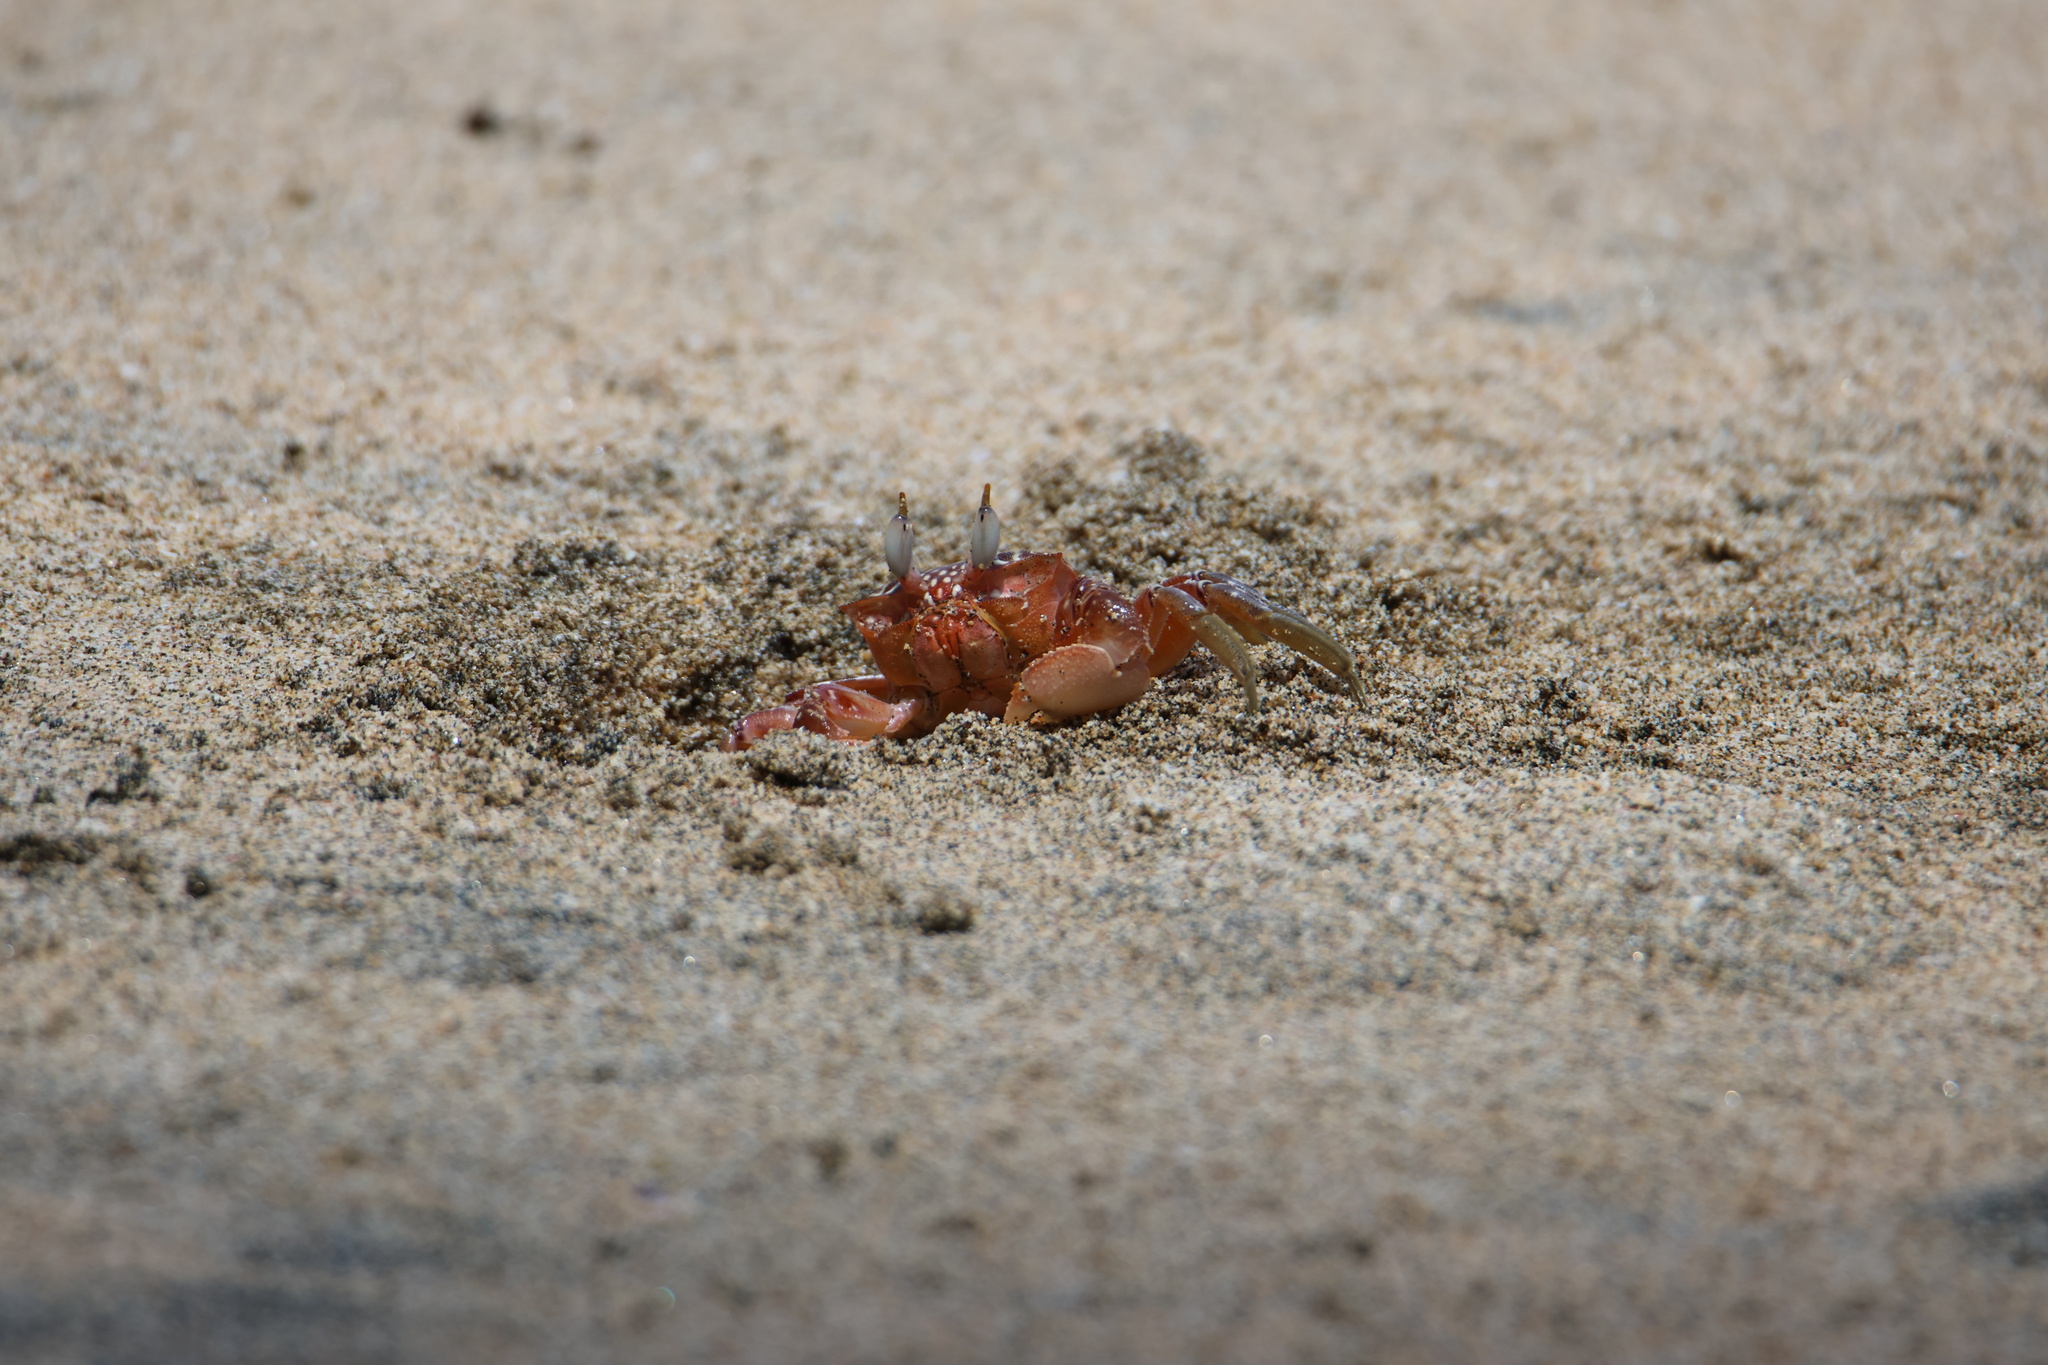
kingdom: Animalia
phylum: Arthropoda
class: Malacostraca
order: Decapoda
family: Ocypodidae
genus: Ocypode
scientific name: Ocypode gaudichaudii
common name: Pacific ghost crab
